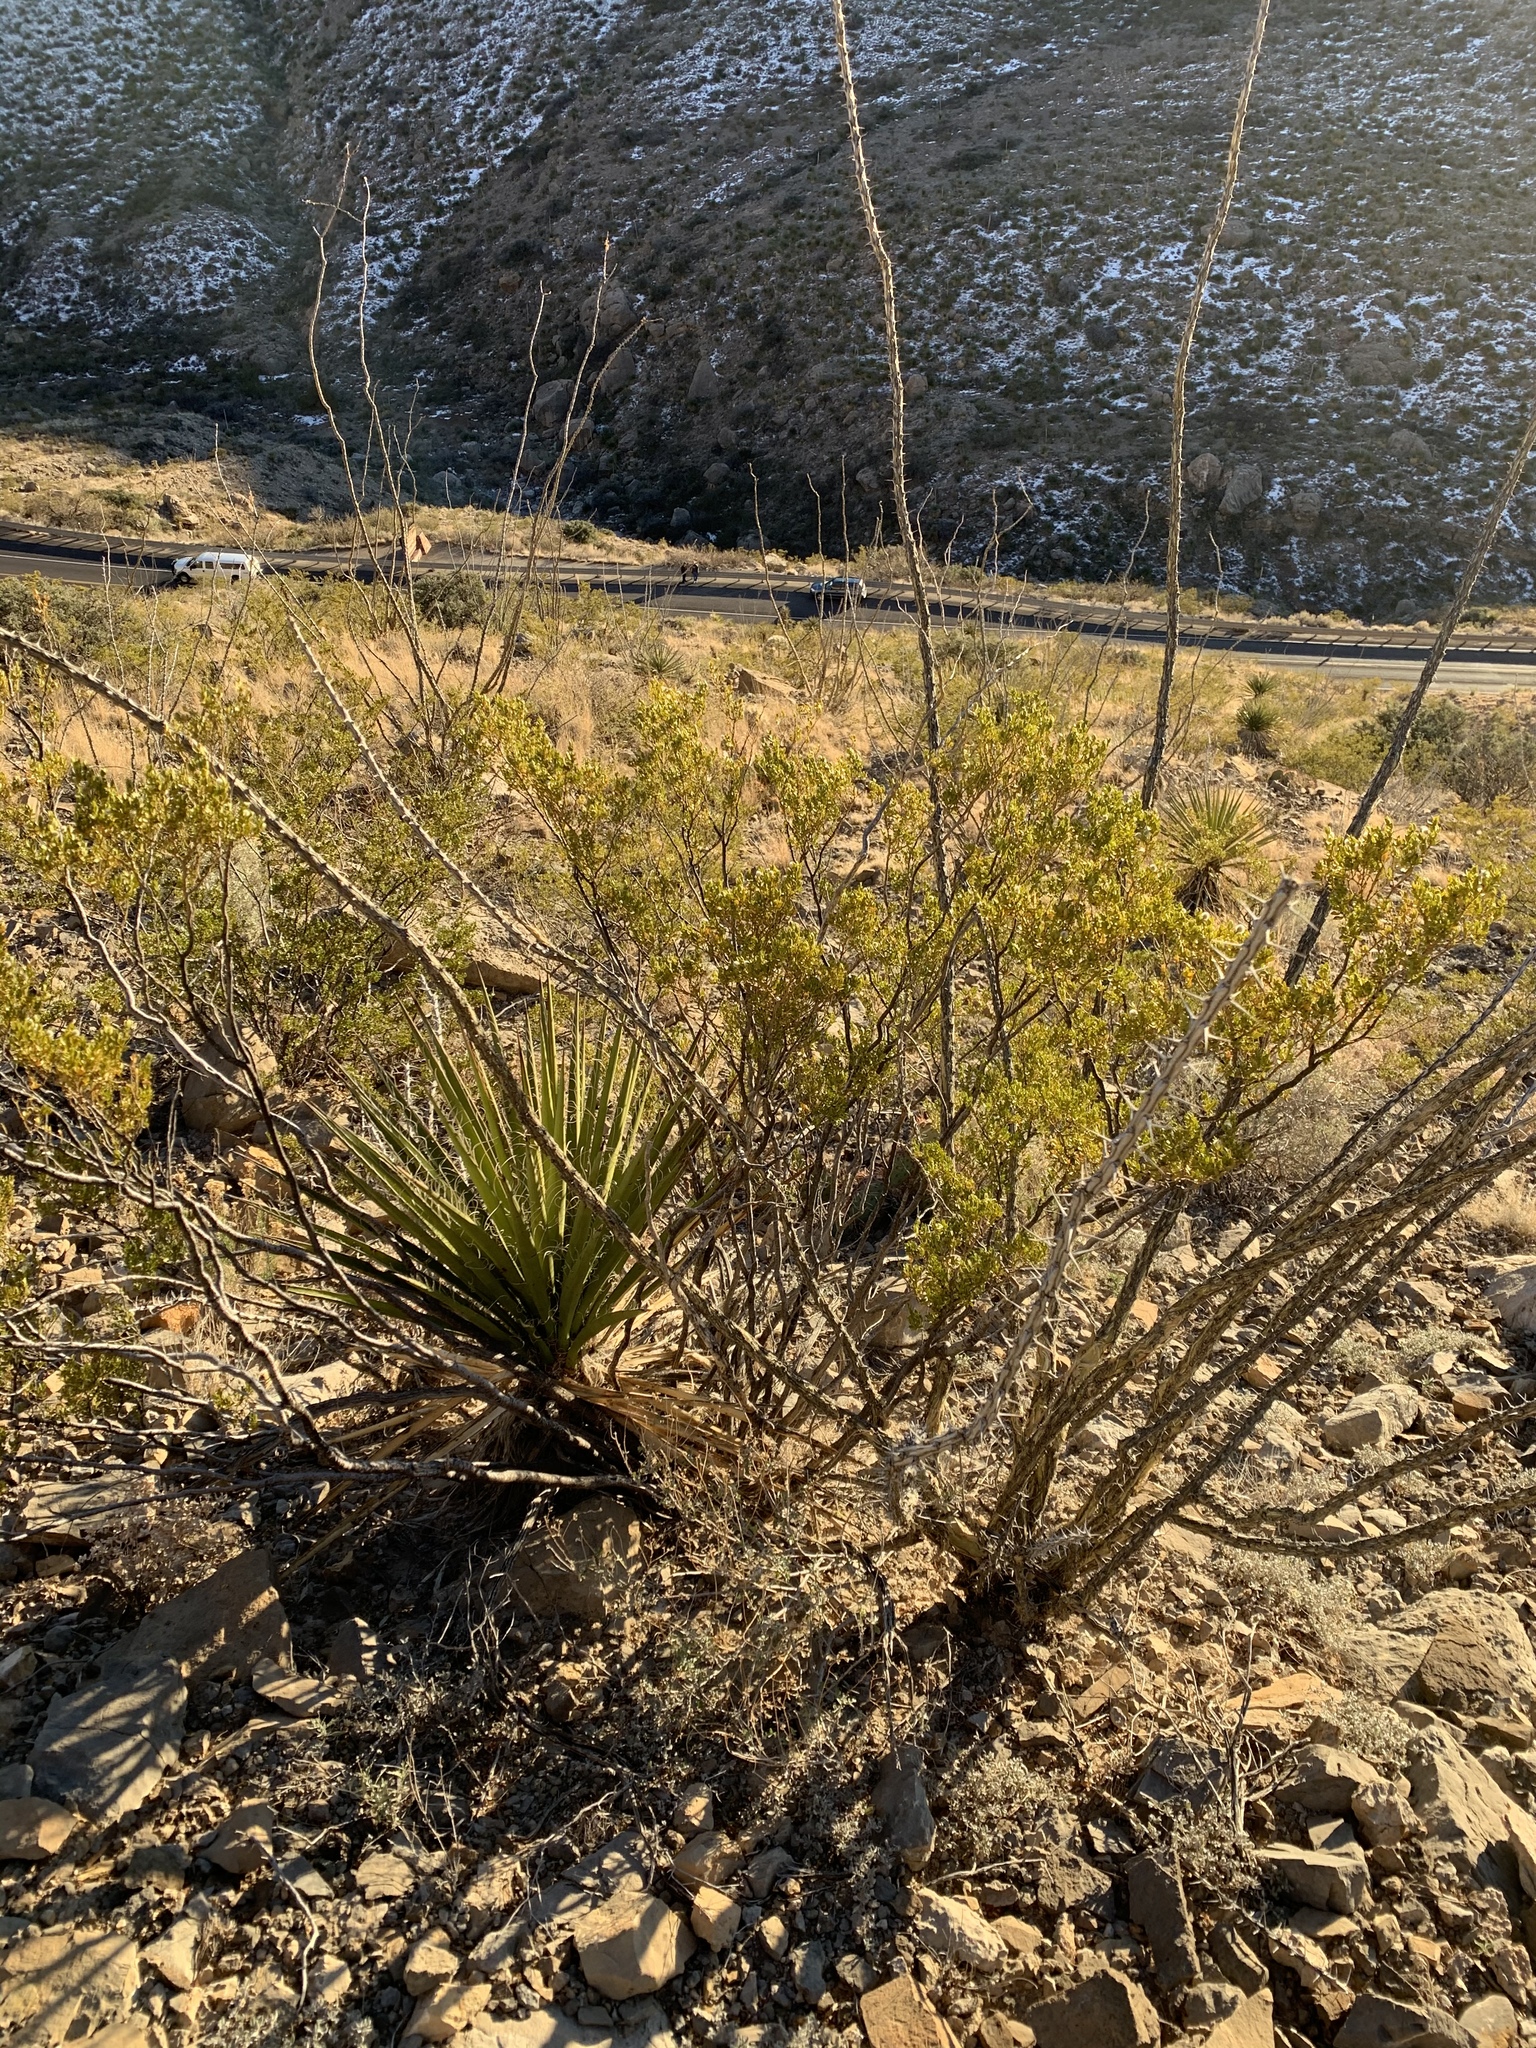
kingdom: Plantae
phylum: Tracheophyta
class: Magnoliopsida
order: Ericales
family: Fouquieriaceae
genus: Fouquieria
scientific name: Fouquieria splendens
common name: Vine-cactus
